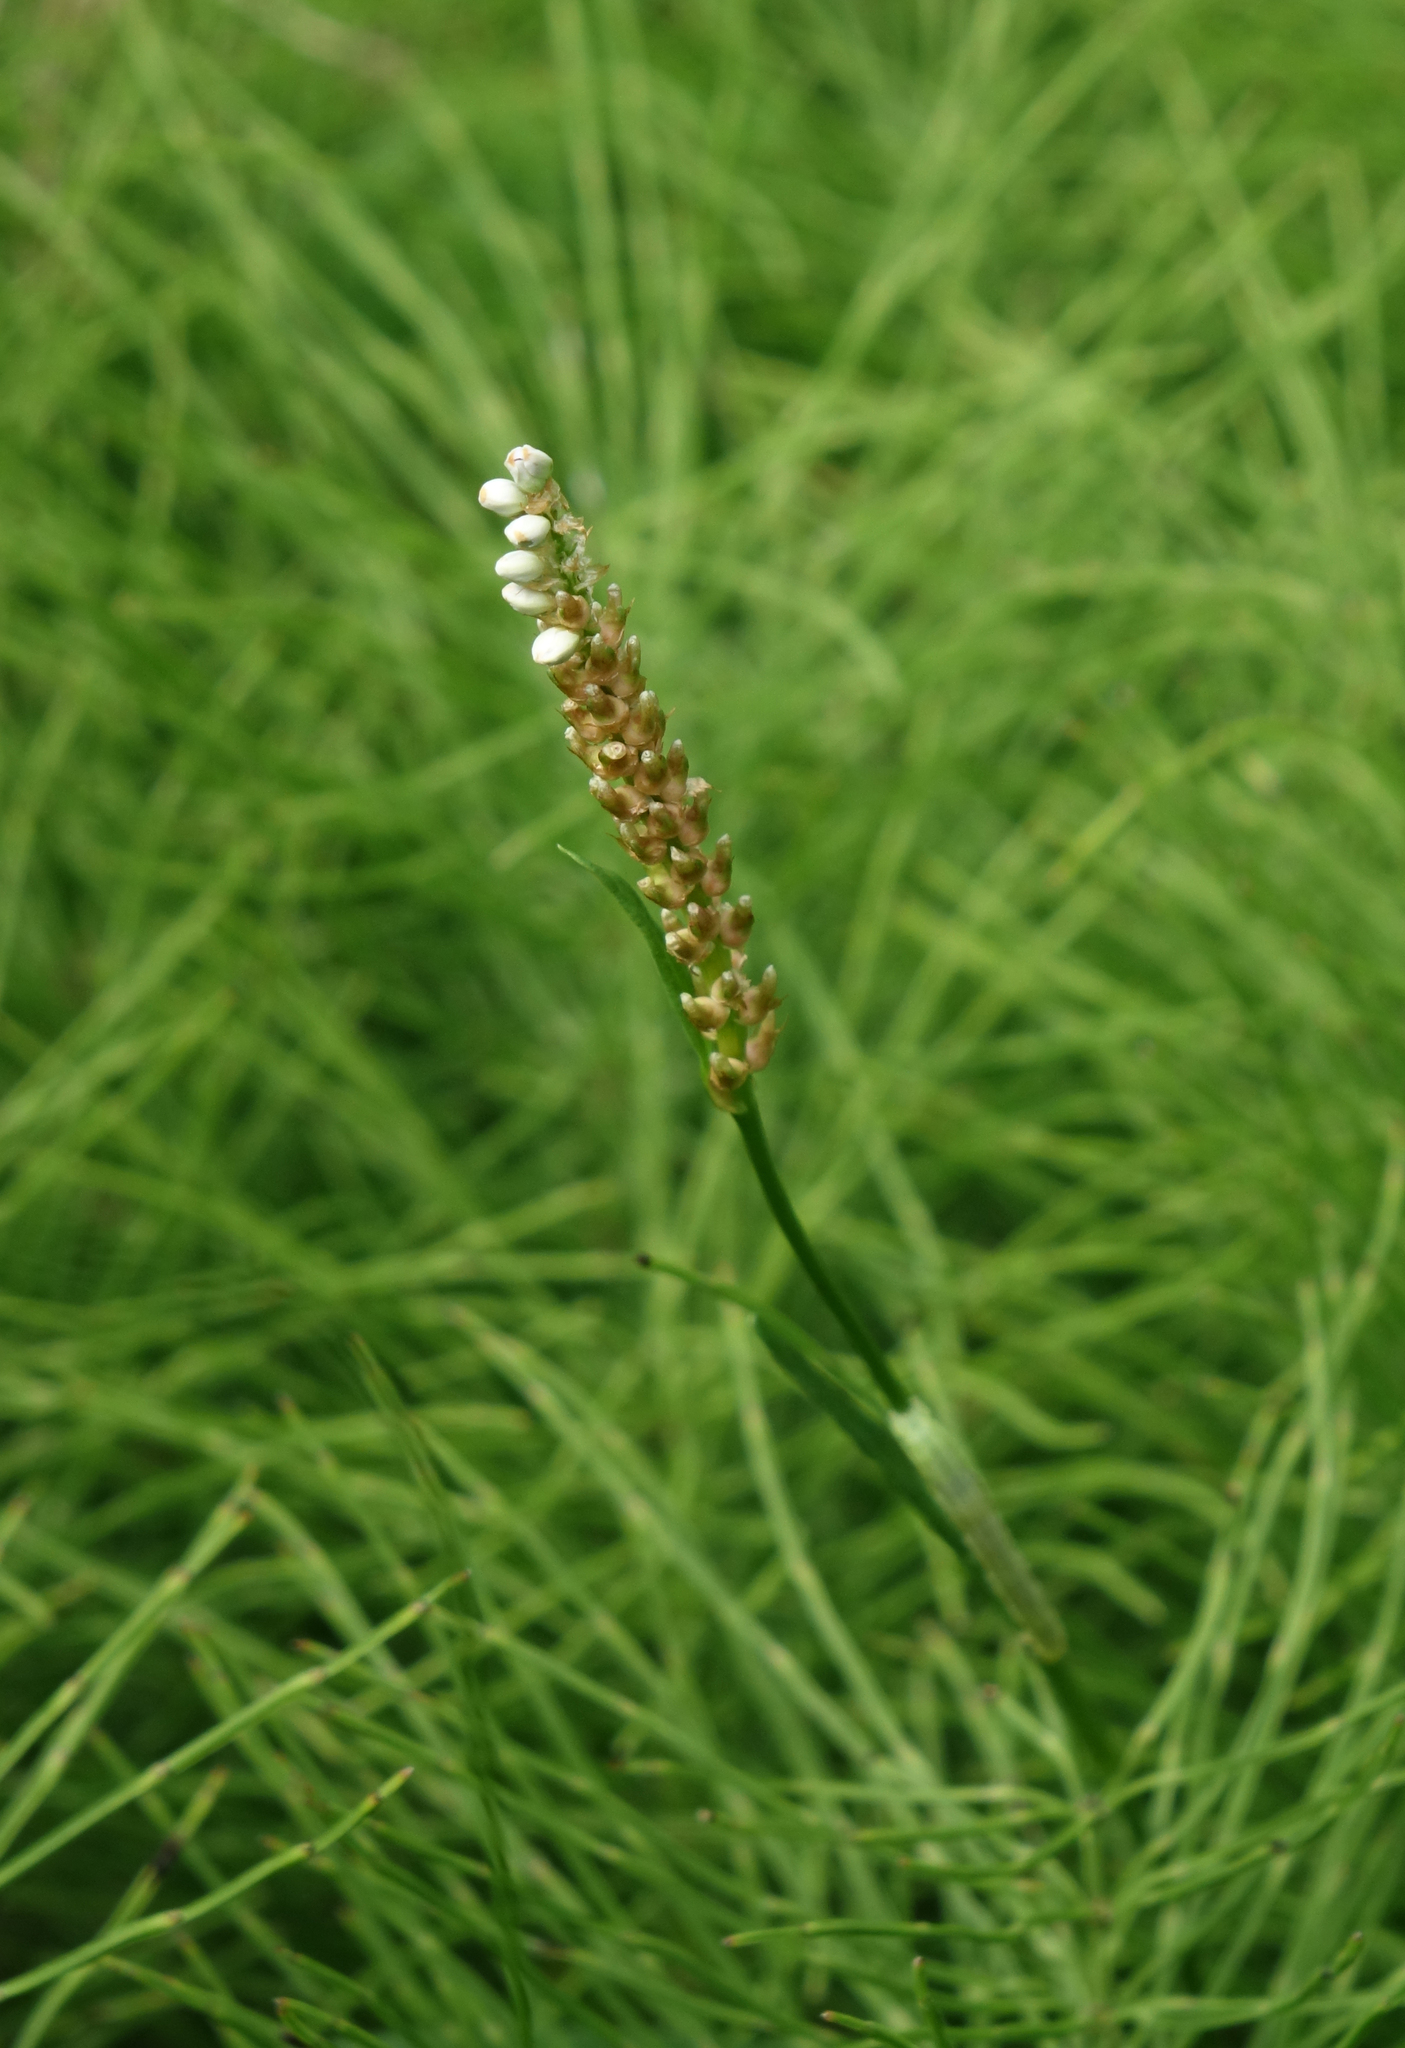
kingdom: Plantae
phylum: Tracheophyta
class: Magnoliopsida
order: Caryophyllales
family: Polygonaceae
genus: Bistorta
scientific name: Bistorta vivipara
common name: Alpine bistort
